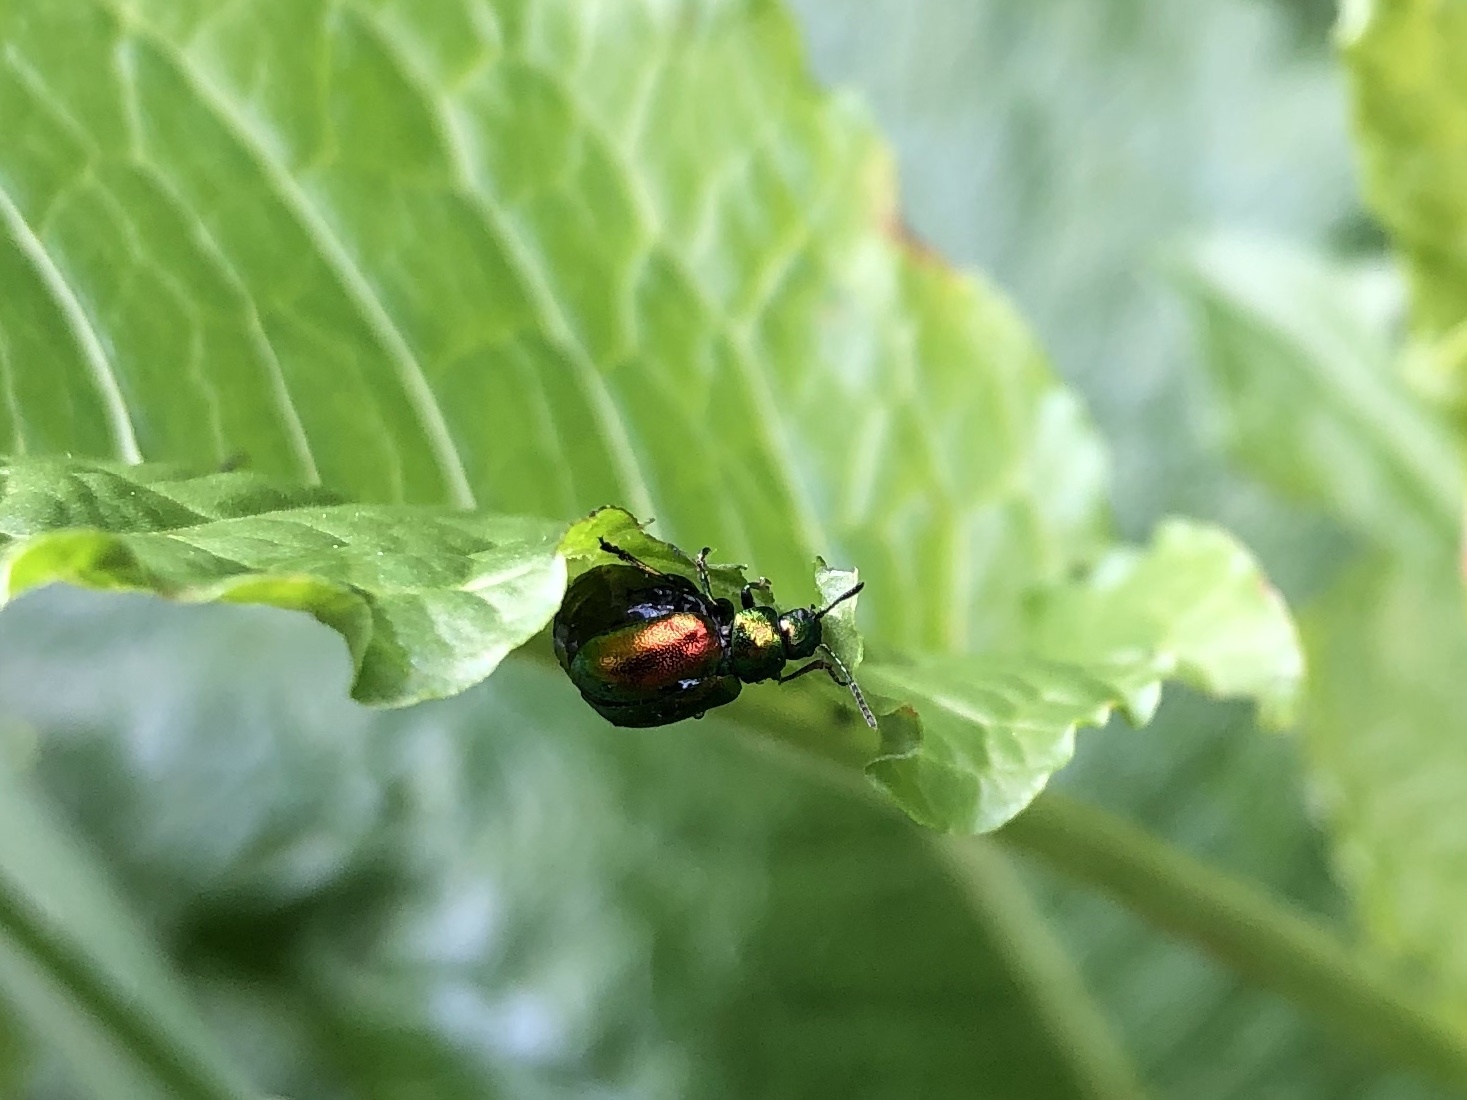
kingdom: Animalia
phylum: Arthropoda
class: Insecta
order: Coleoptera
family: Chrysomelidae
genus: Gastrophysa
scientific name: Gastrophysa viridula
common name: Green dock beetle
